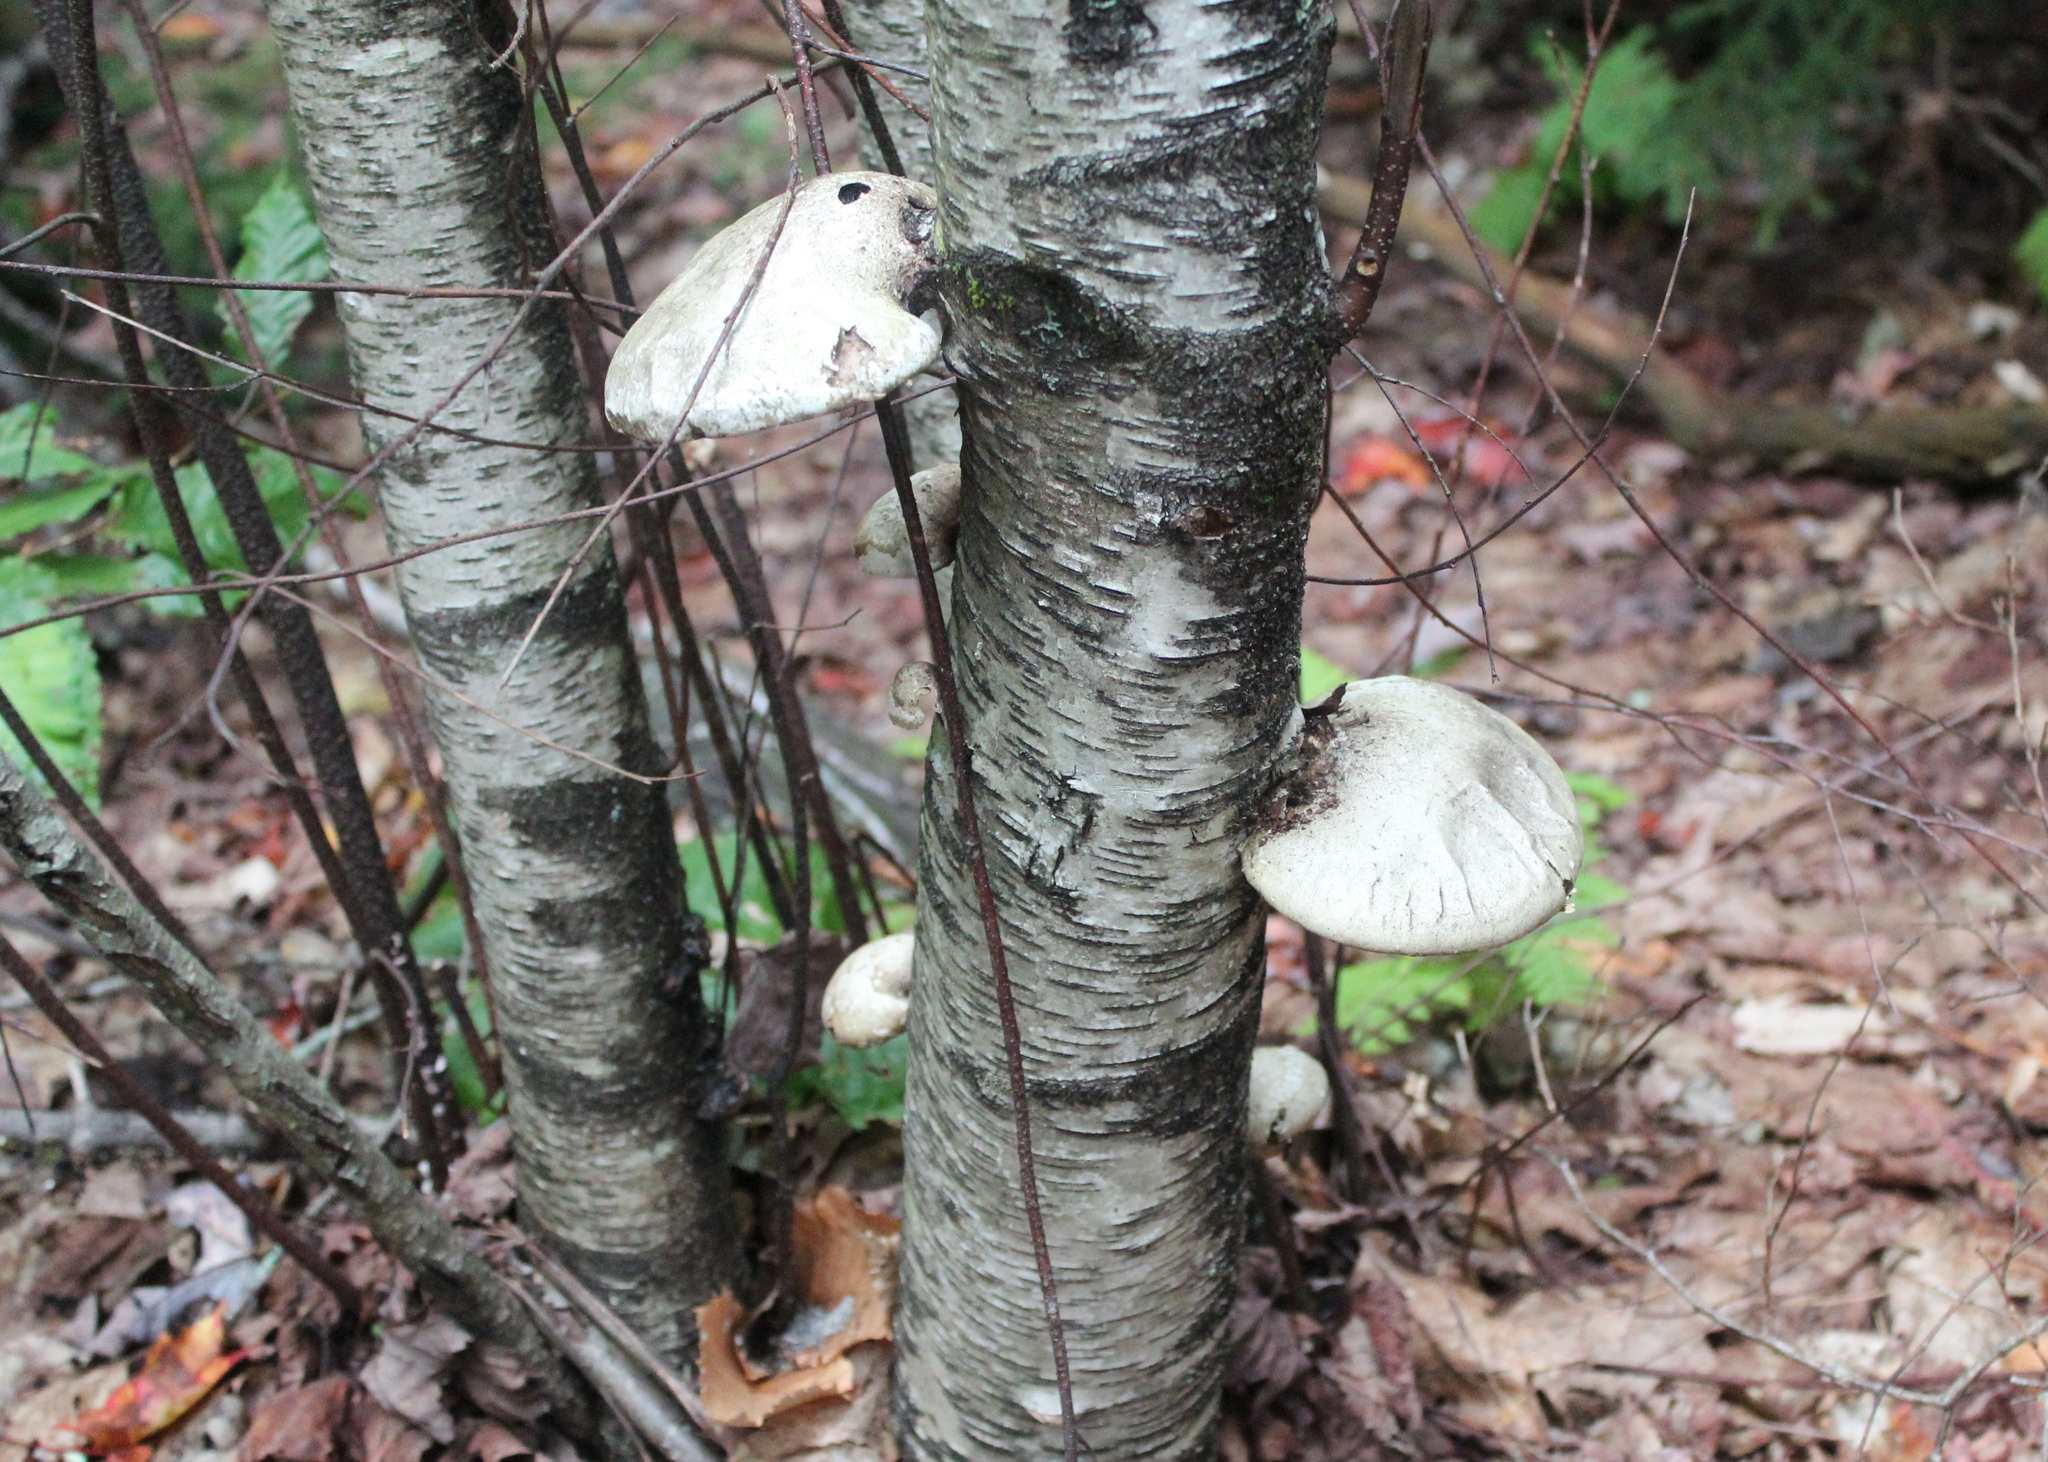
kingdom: Fungi
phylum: Basidiomycota
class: Agaricomycetes
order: Polyporales
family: Fomitopsidaceae
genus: Fomitopsis
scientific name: Fomitopsis betulina
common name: Birch polypore
